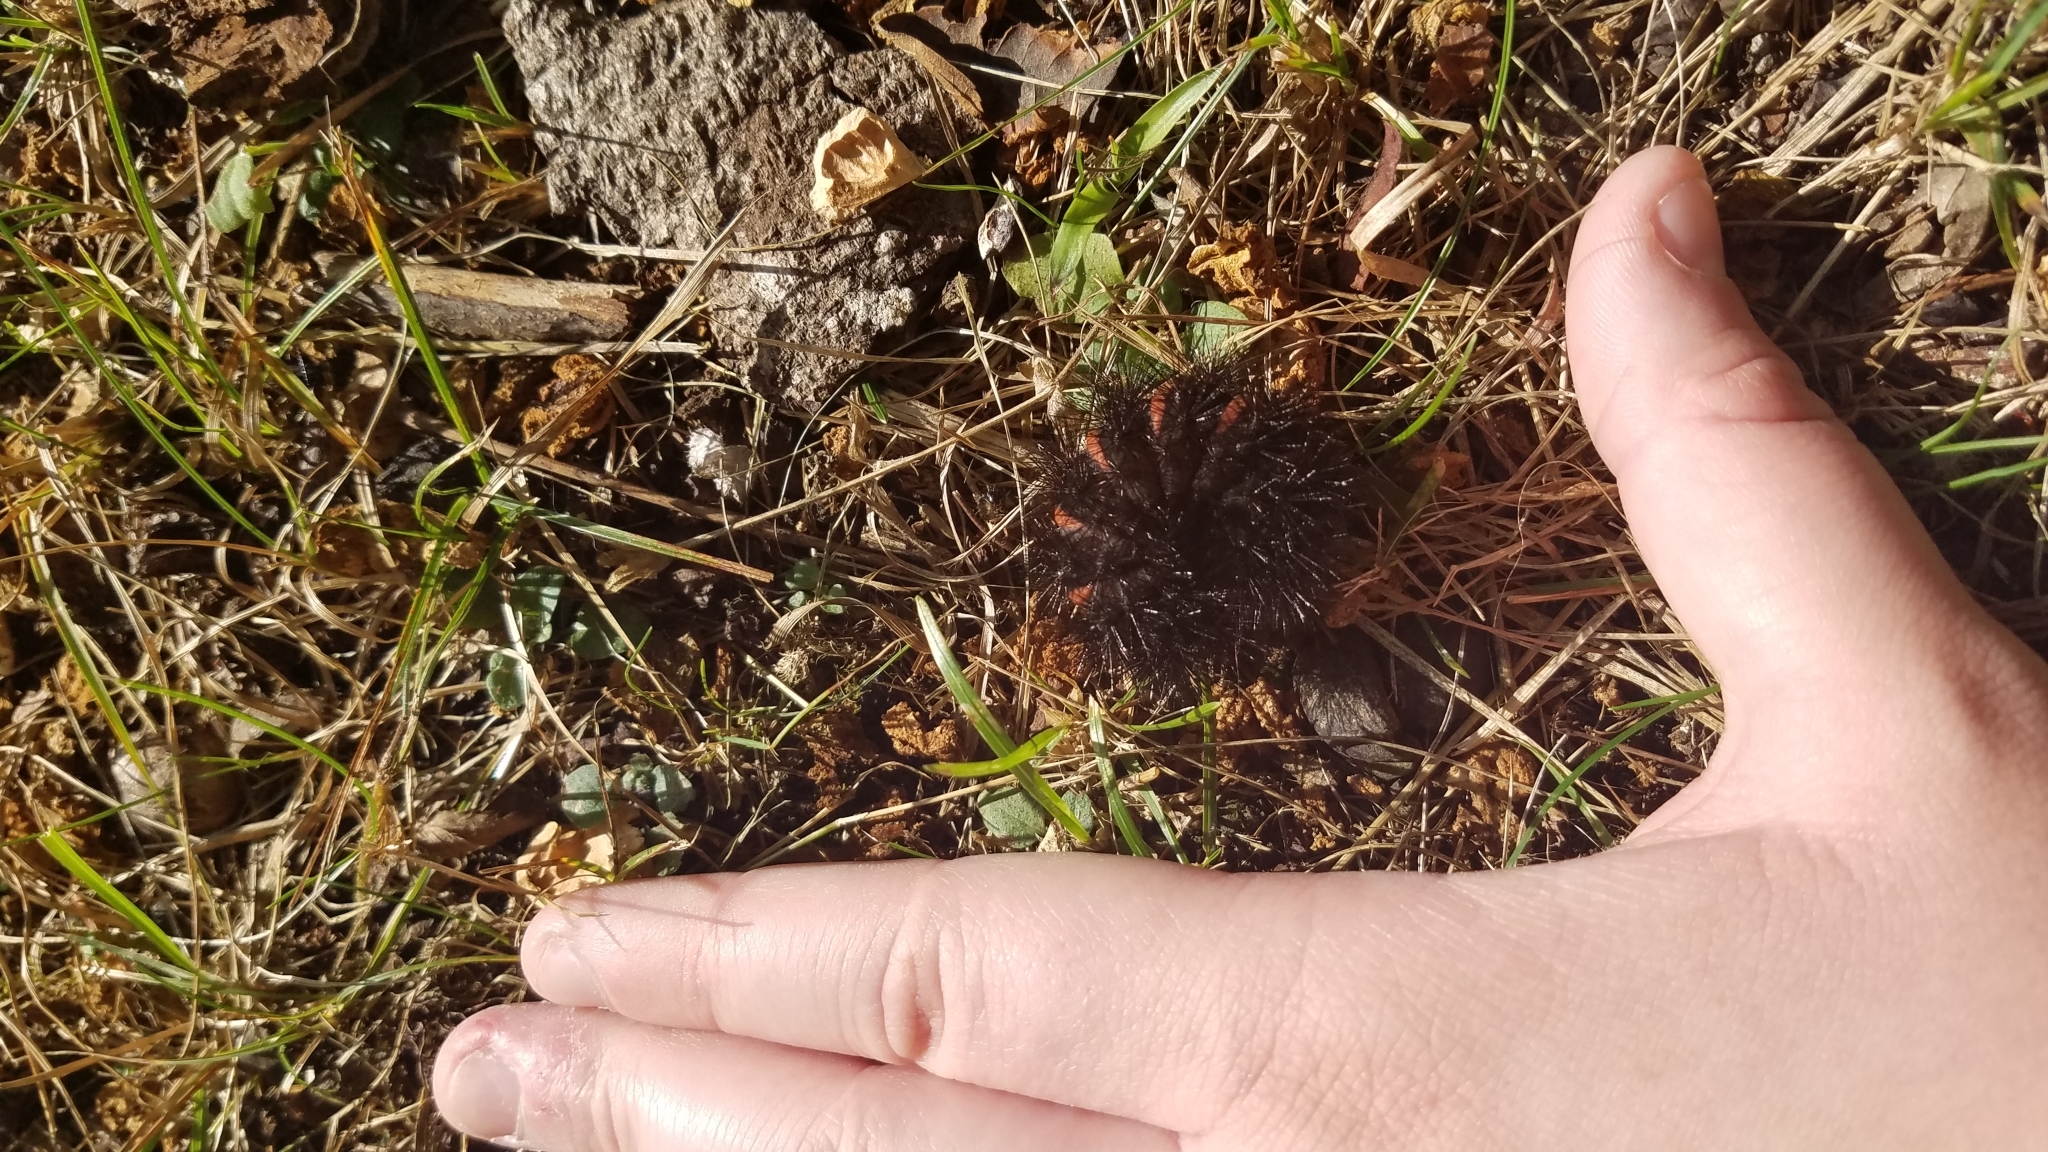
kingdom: Animalia
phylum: Arthropoda
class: Insecta
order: Lepidoptera
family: Erebidae
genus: Hypercompe
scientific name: Hypercompe scribonia
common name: Giant leopard moth
